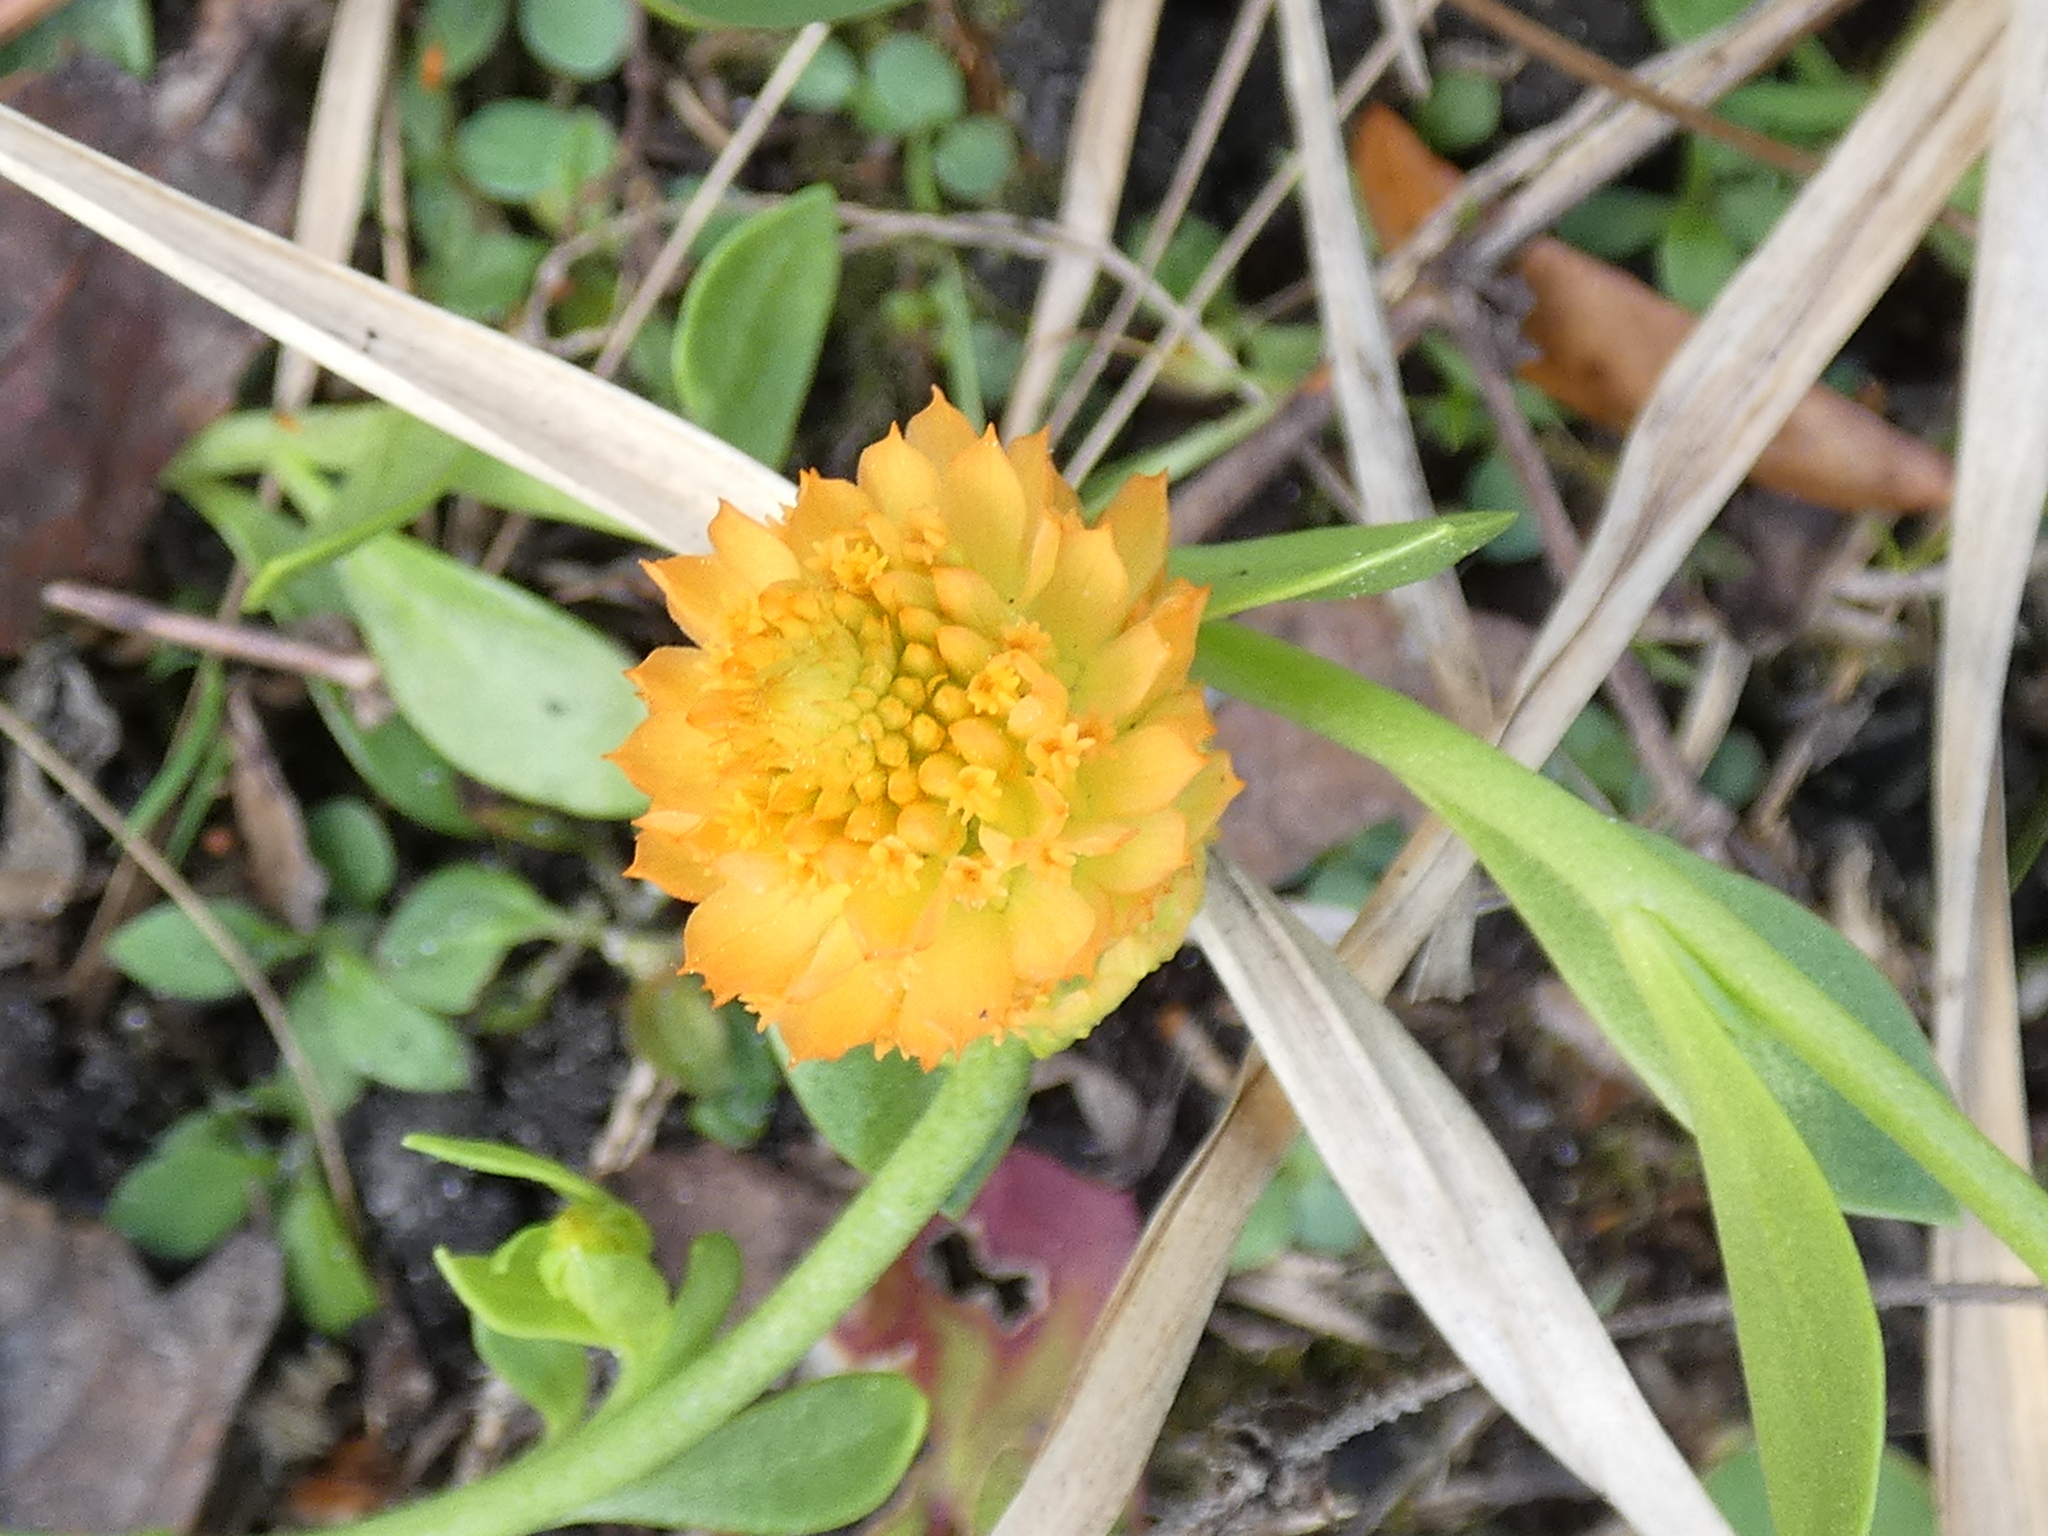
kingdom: Plantae
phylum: Tracheophyta
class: Magnoliopsida
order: Fabales
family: Polygalaceae
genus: Polygala
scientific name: Polygala lutea
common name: Orange milkwort
